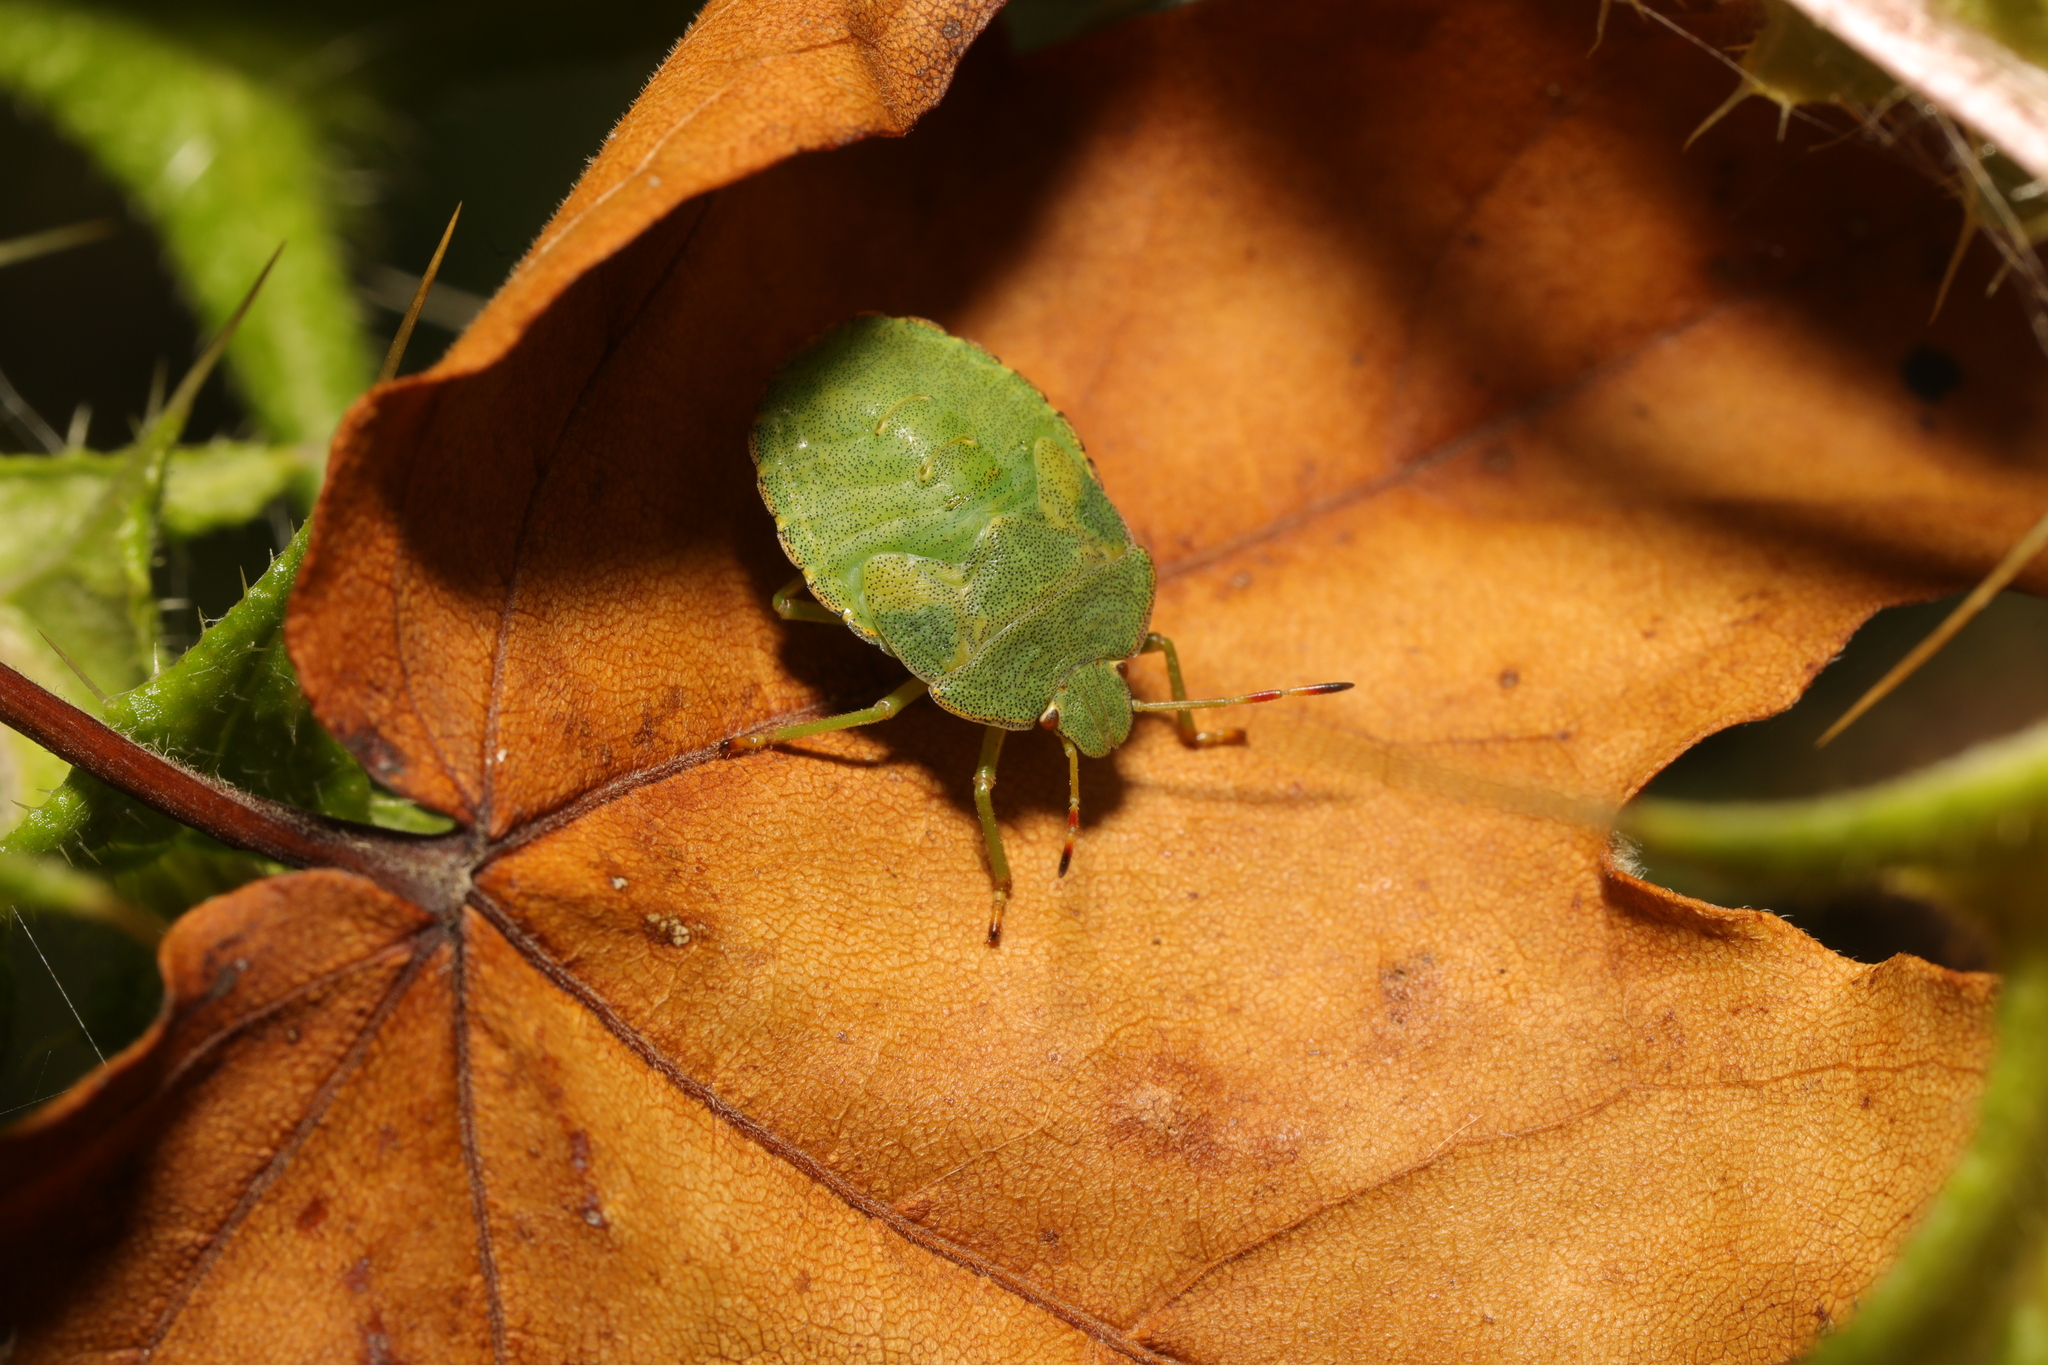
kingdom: Animalia
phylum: Arthropoda
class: Insecta
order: Hemiptera
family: Pentatomidae
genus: Palomena
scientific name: Palomena prasina
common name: Green shieldbug
